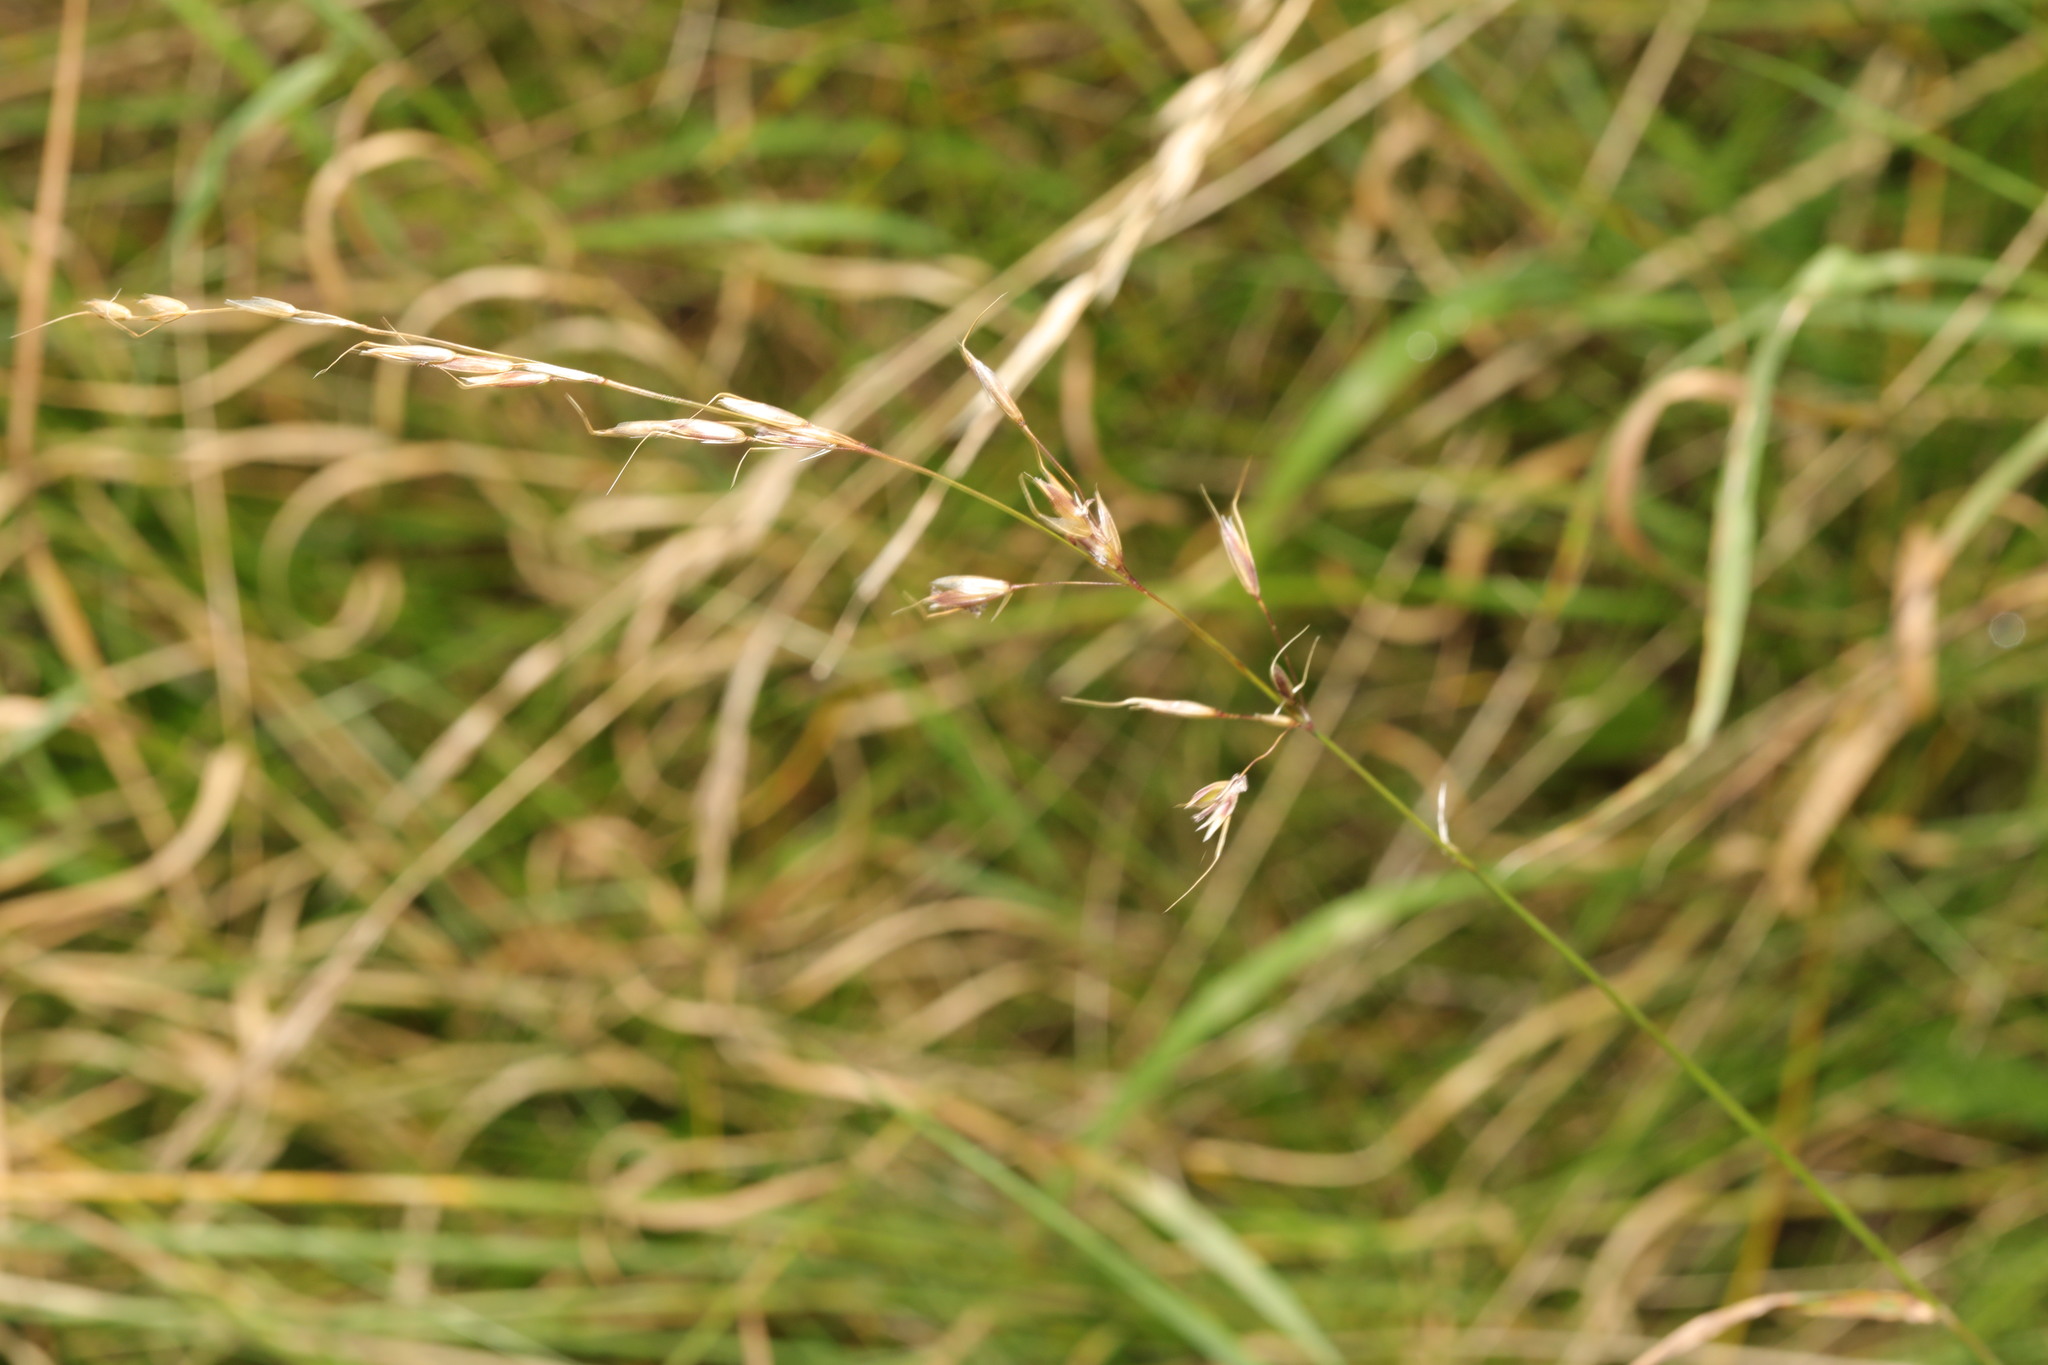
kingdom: Plantae
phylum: Tracheophyta
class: Liliopsida
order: Poales
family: Poaceae
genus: Arrhenatherum
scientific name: Arrhenatherum elatius
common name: Tall oatgrass
